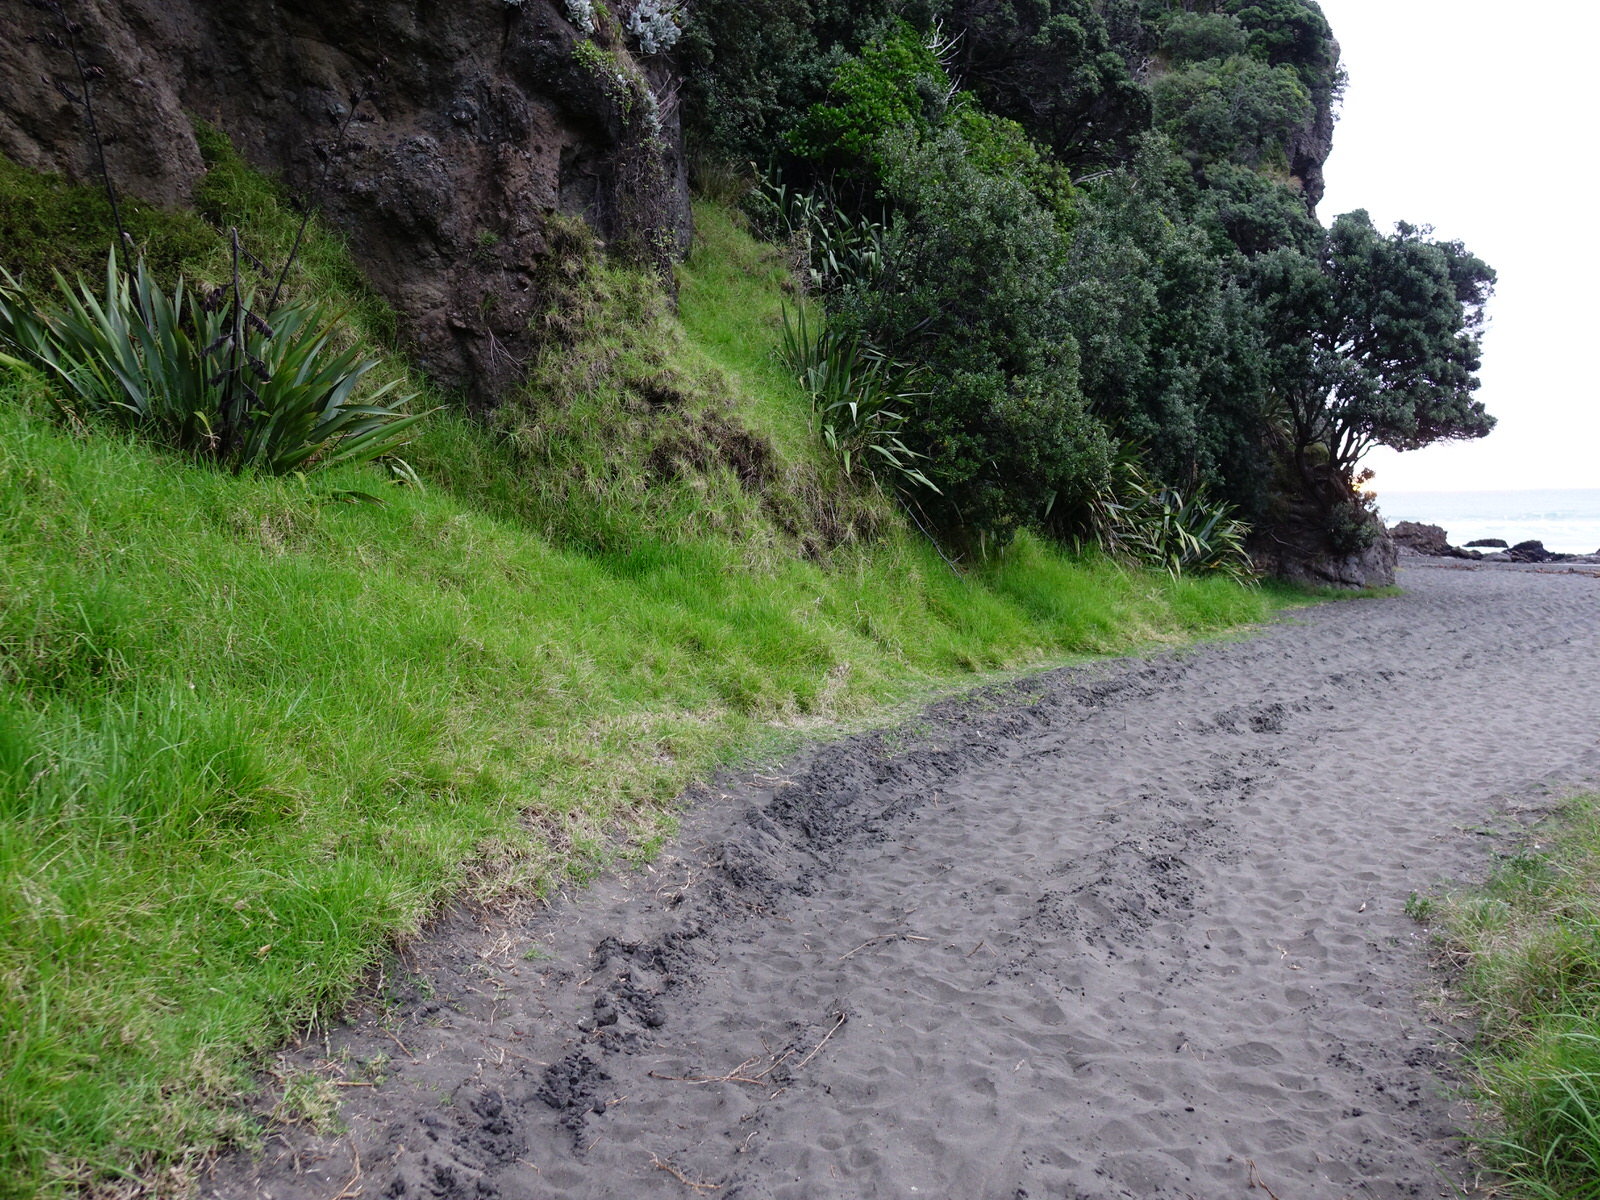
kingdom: Plantae
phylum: Tracheophyta
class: Liliopsida
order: Poales
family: Poaceae
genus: Cenchrus
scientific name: Cenchrus clandestinus
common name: Kikuyugrass
